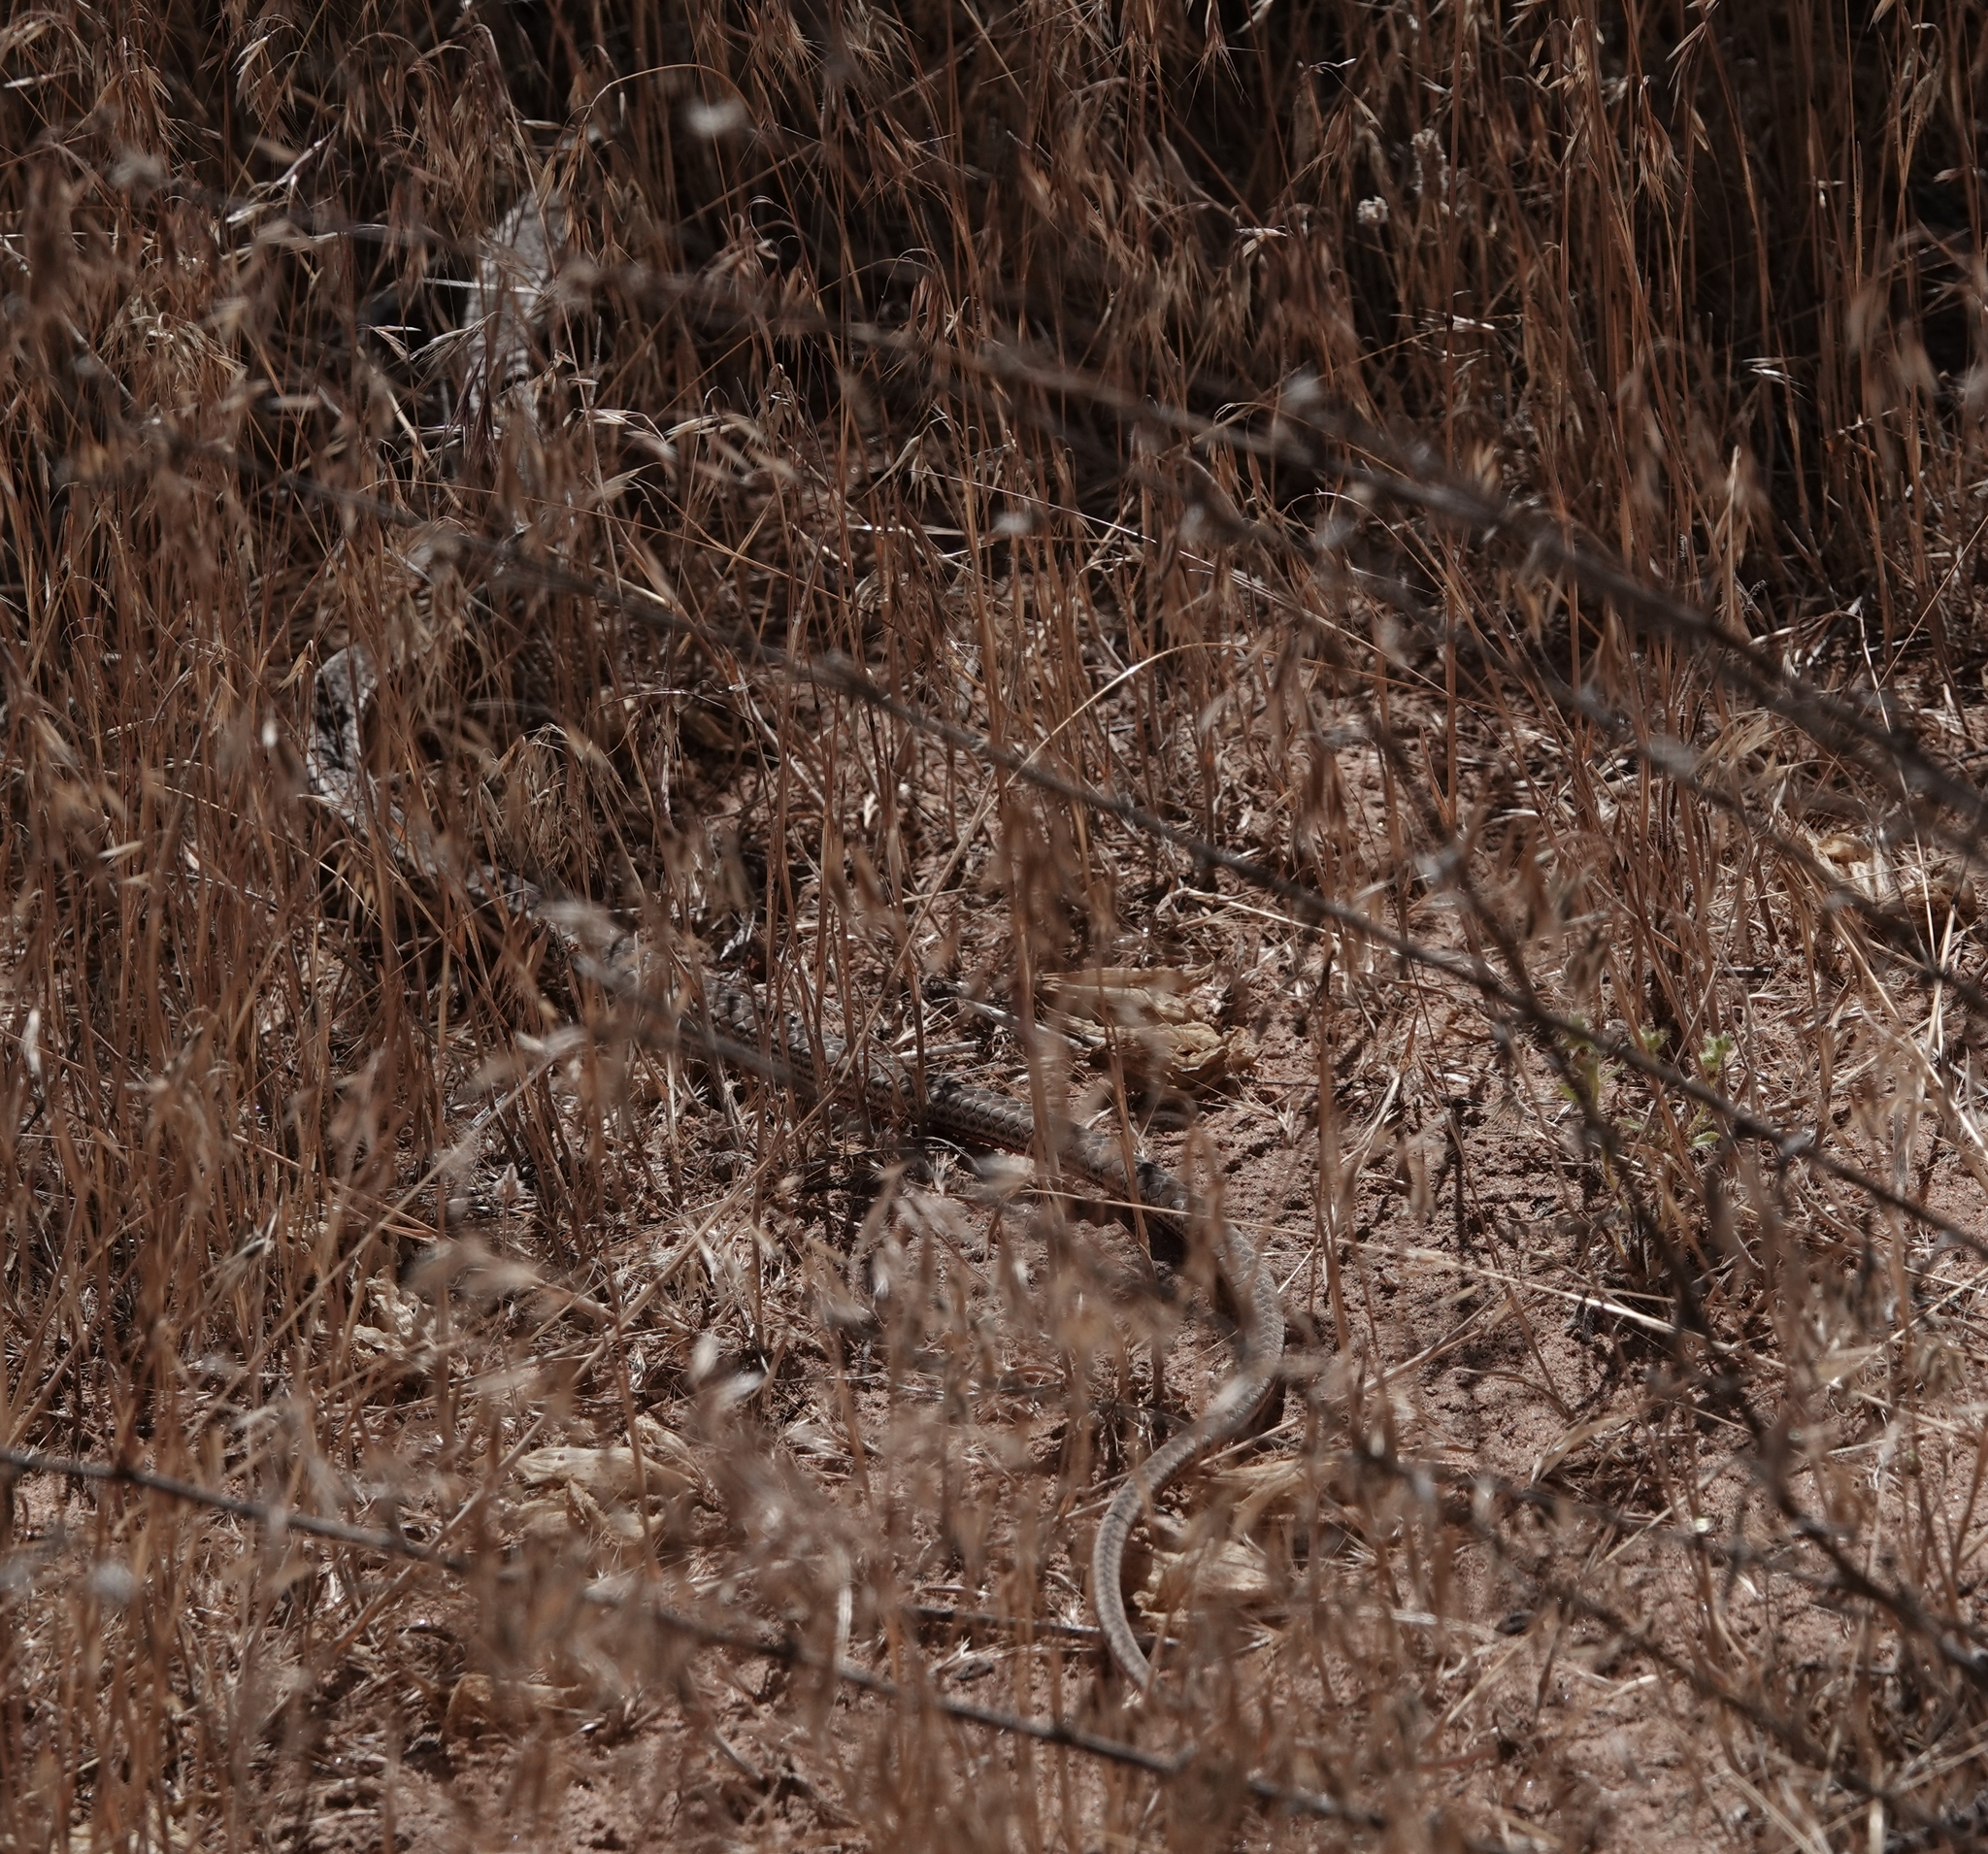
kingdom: Animalia
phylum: Chordata
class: Squamata
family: Colubridae
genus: Masticophis
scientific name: Masticophis taeniatus
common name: Striped whipsnake
